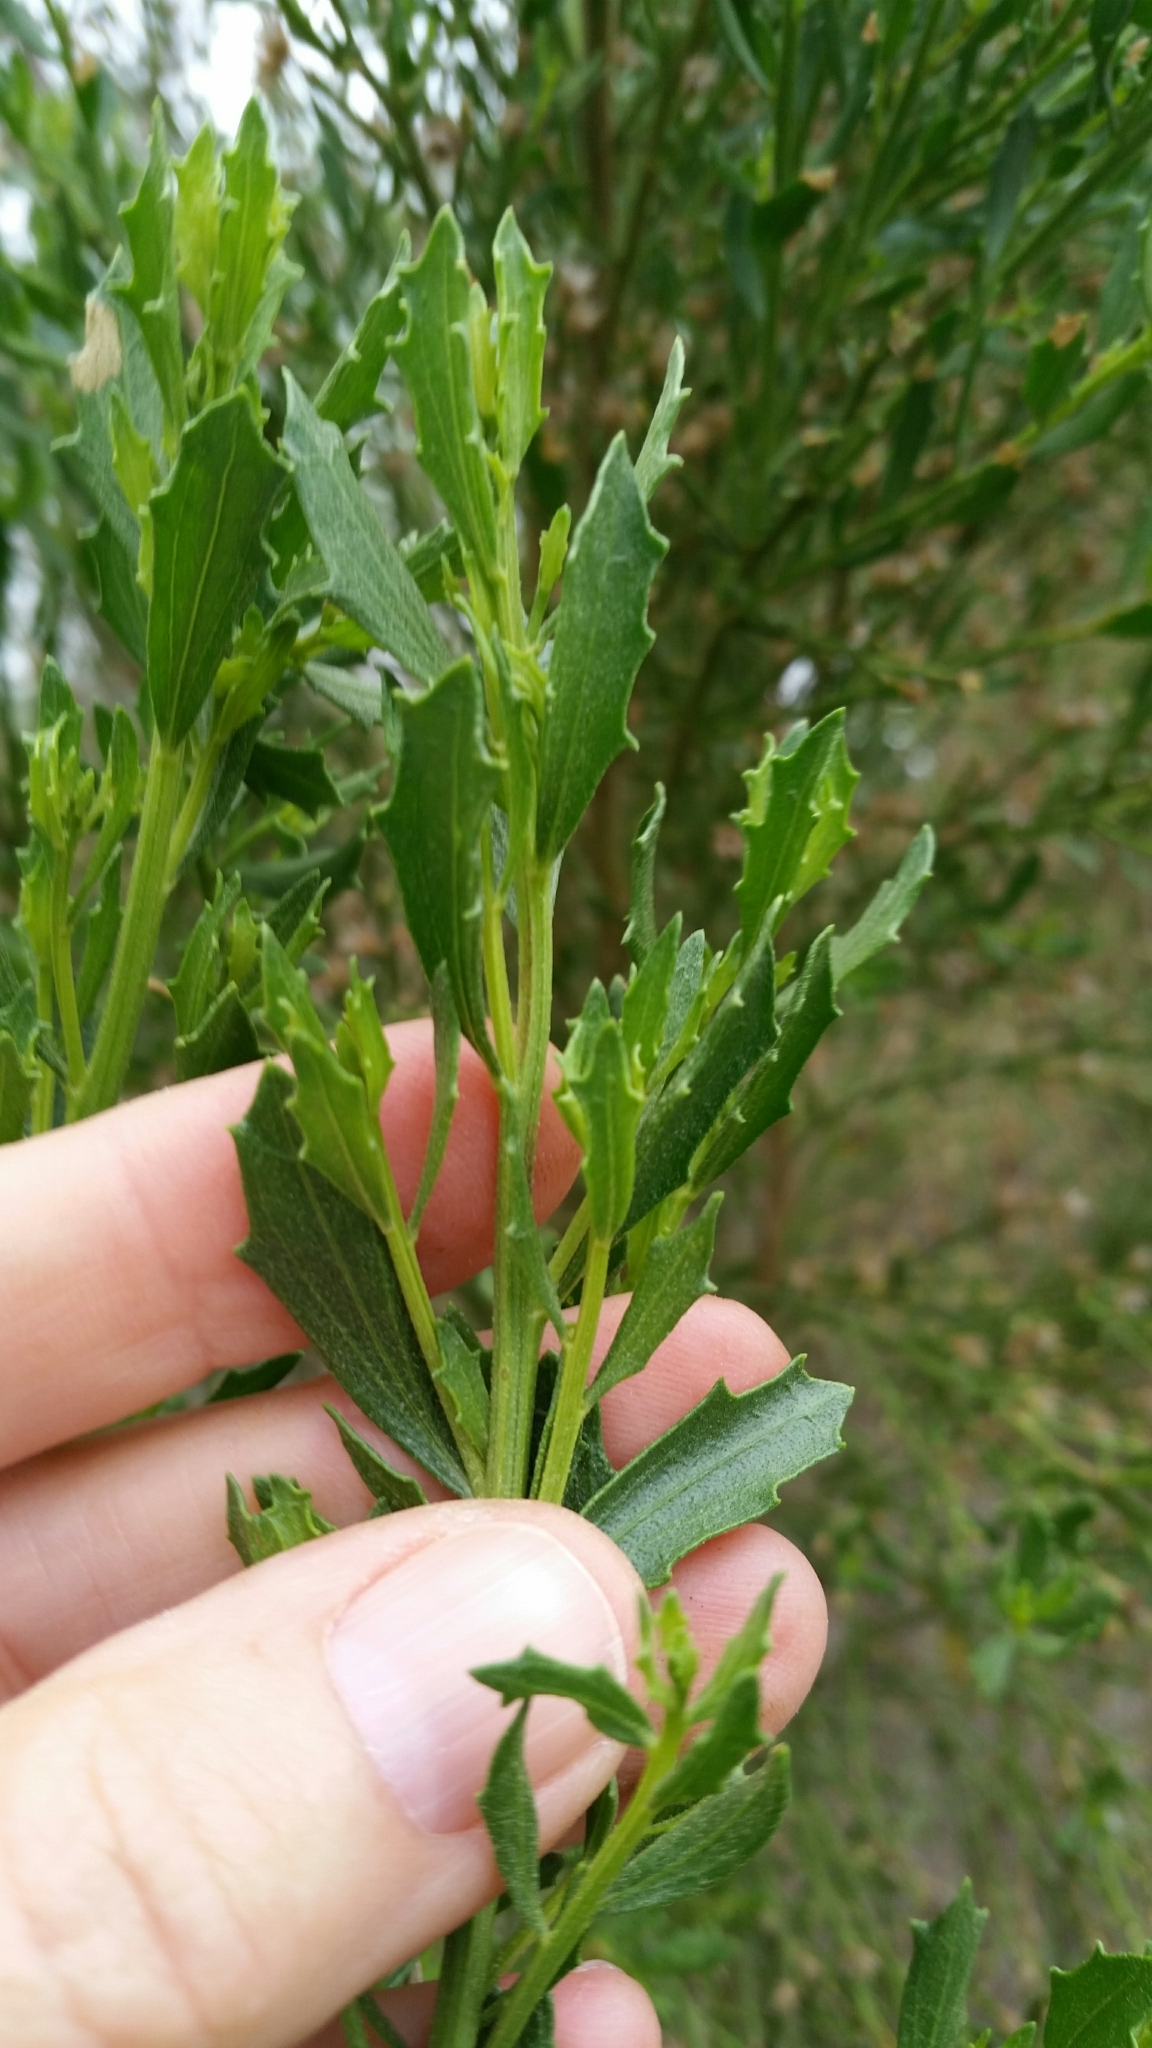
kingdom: Plantae
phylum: Tracheophyta
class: Magnoliopsida
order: Asterales
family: Asteraceae
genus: Baccharis
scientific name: Baccharis pilularis
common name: Coyotebrush
